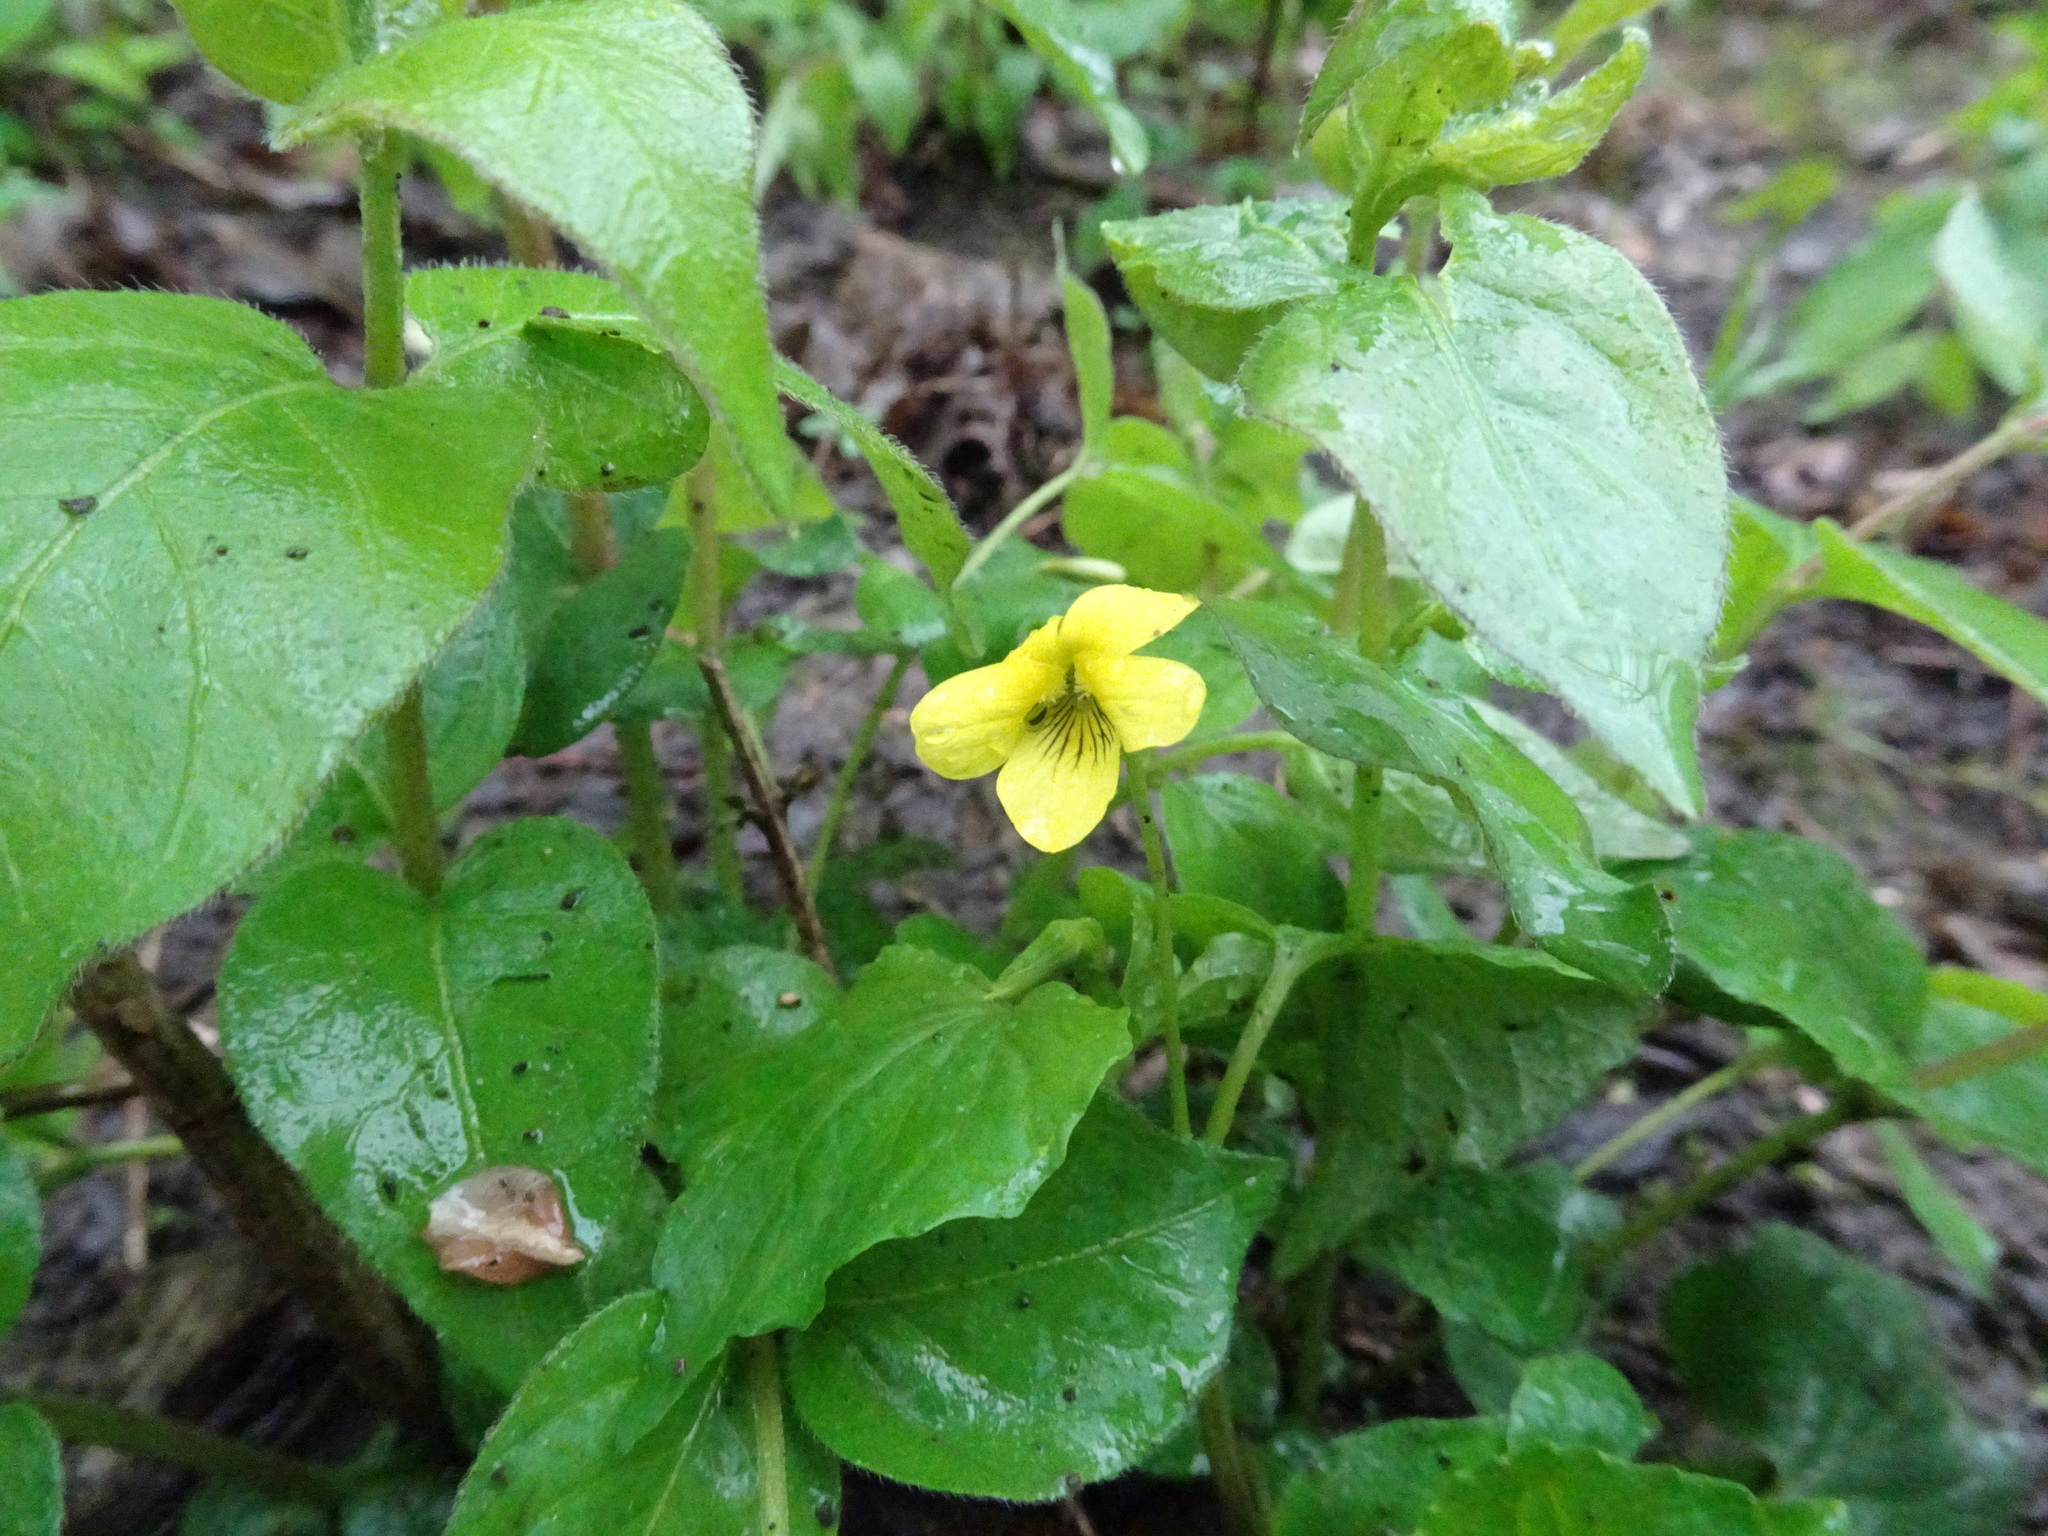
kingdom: Plantae
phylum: Tracheophyta
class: Magnoliopsida
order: Malpighiales
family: Violaceae
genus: Viola
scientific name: Viola eriocarpa
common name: Smooth yellow violet
